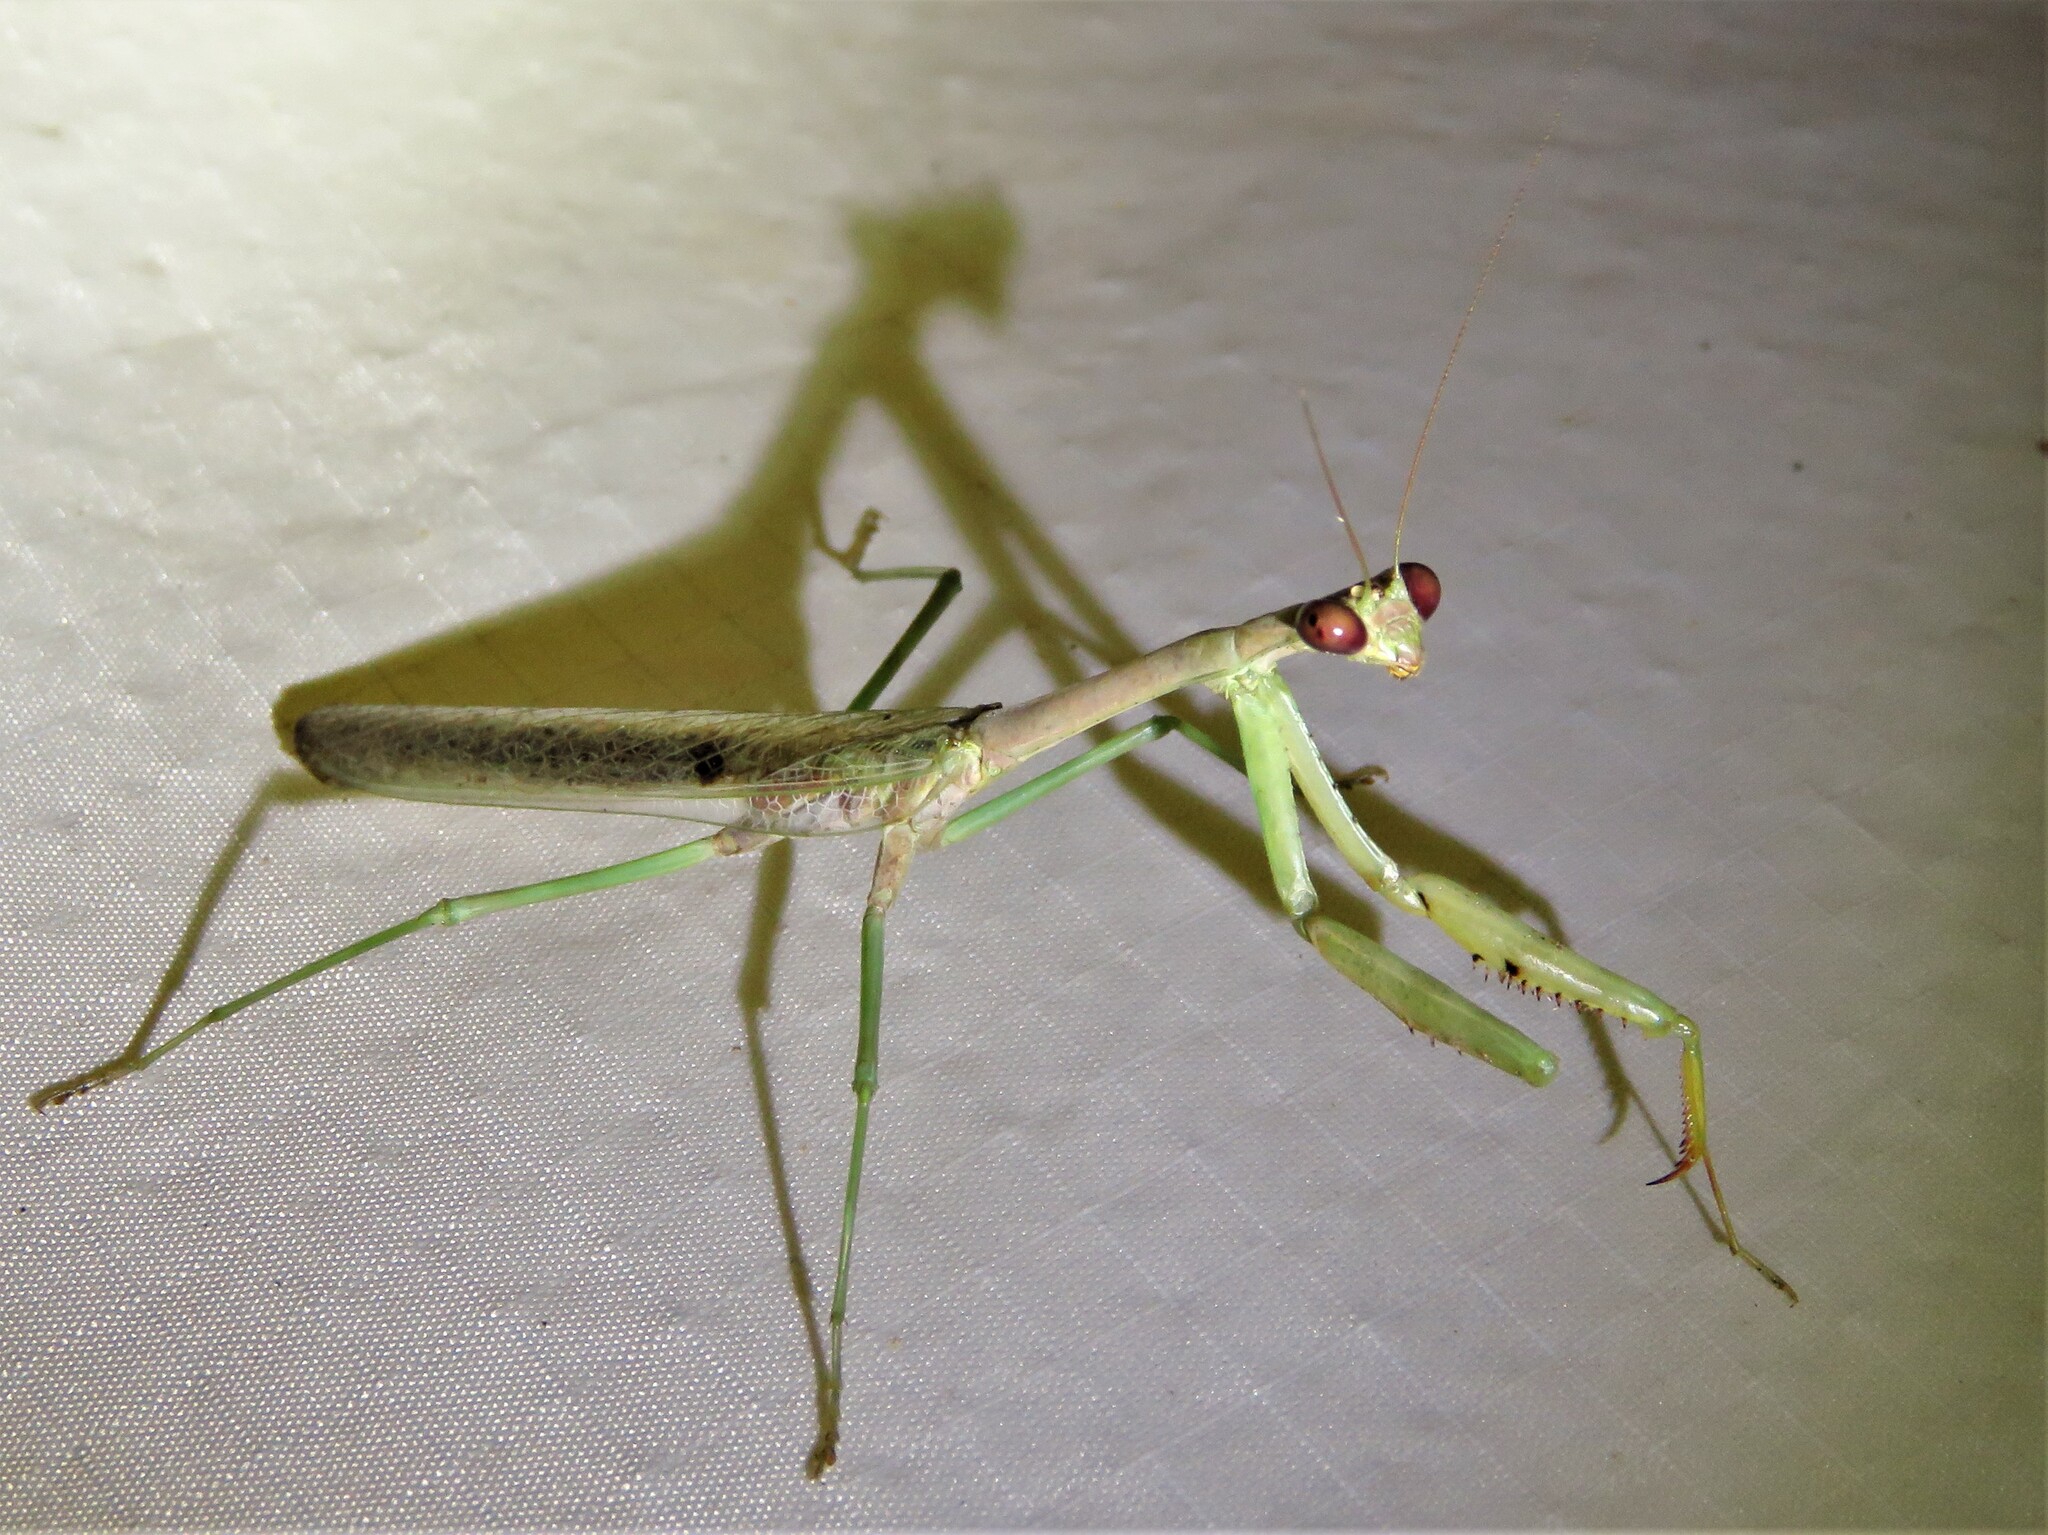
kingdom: Animalia
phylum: Arthropoda
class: Insecta
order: Mantodea
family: Mantidae
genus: Stagmomantis
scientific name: Stagmomantis carolina
